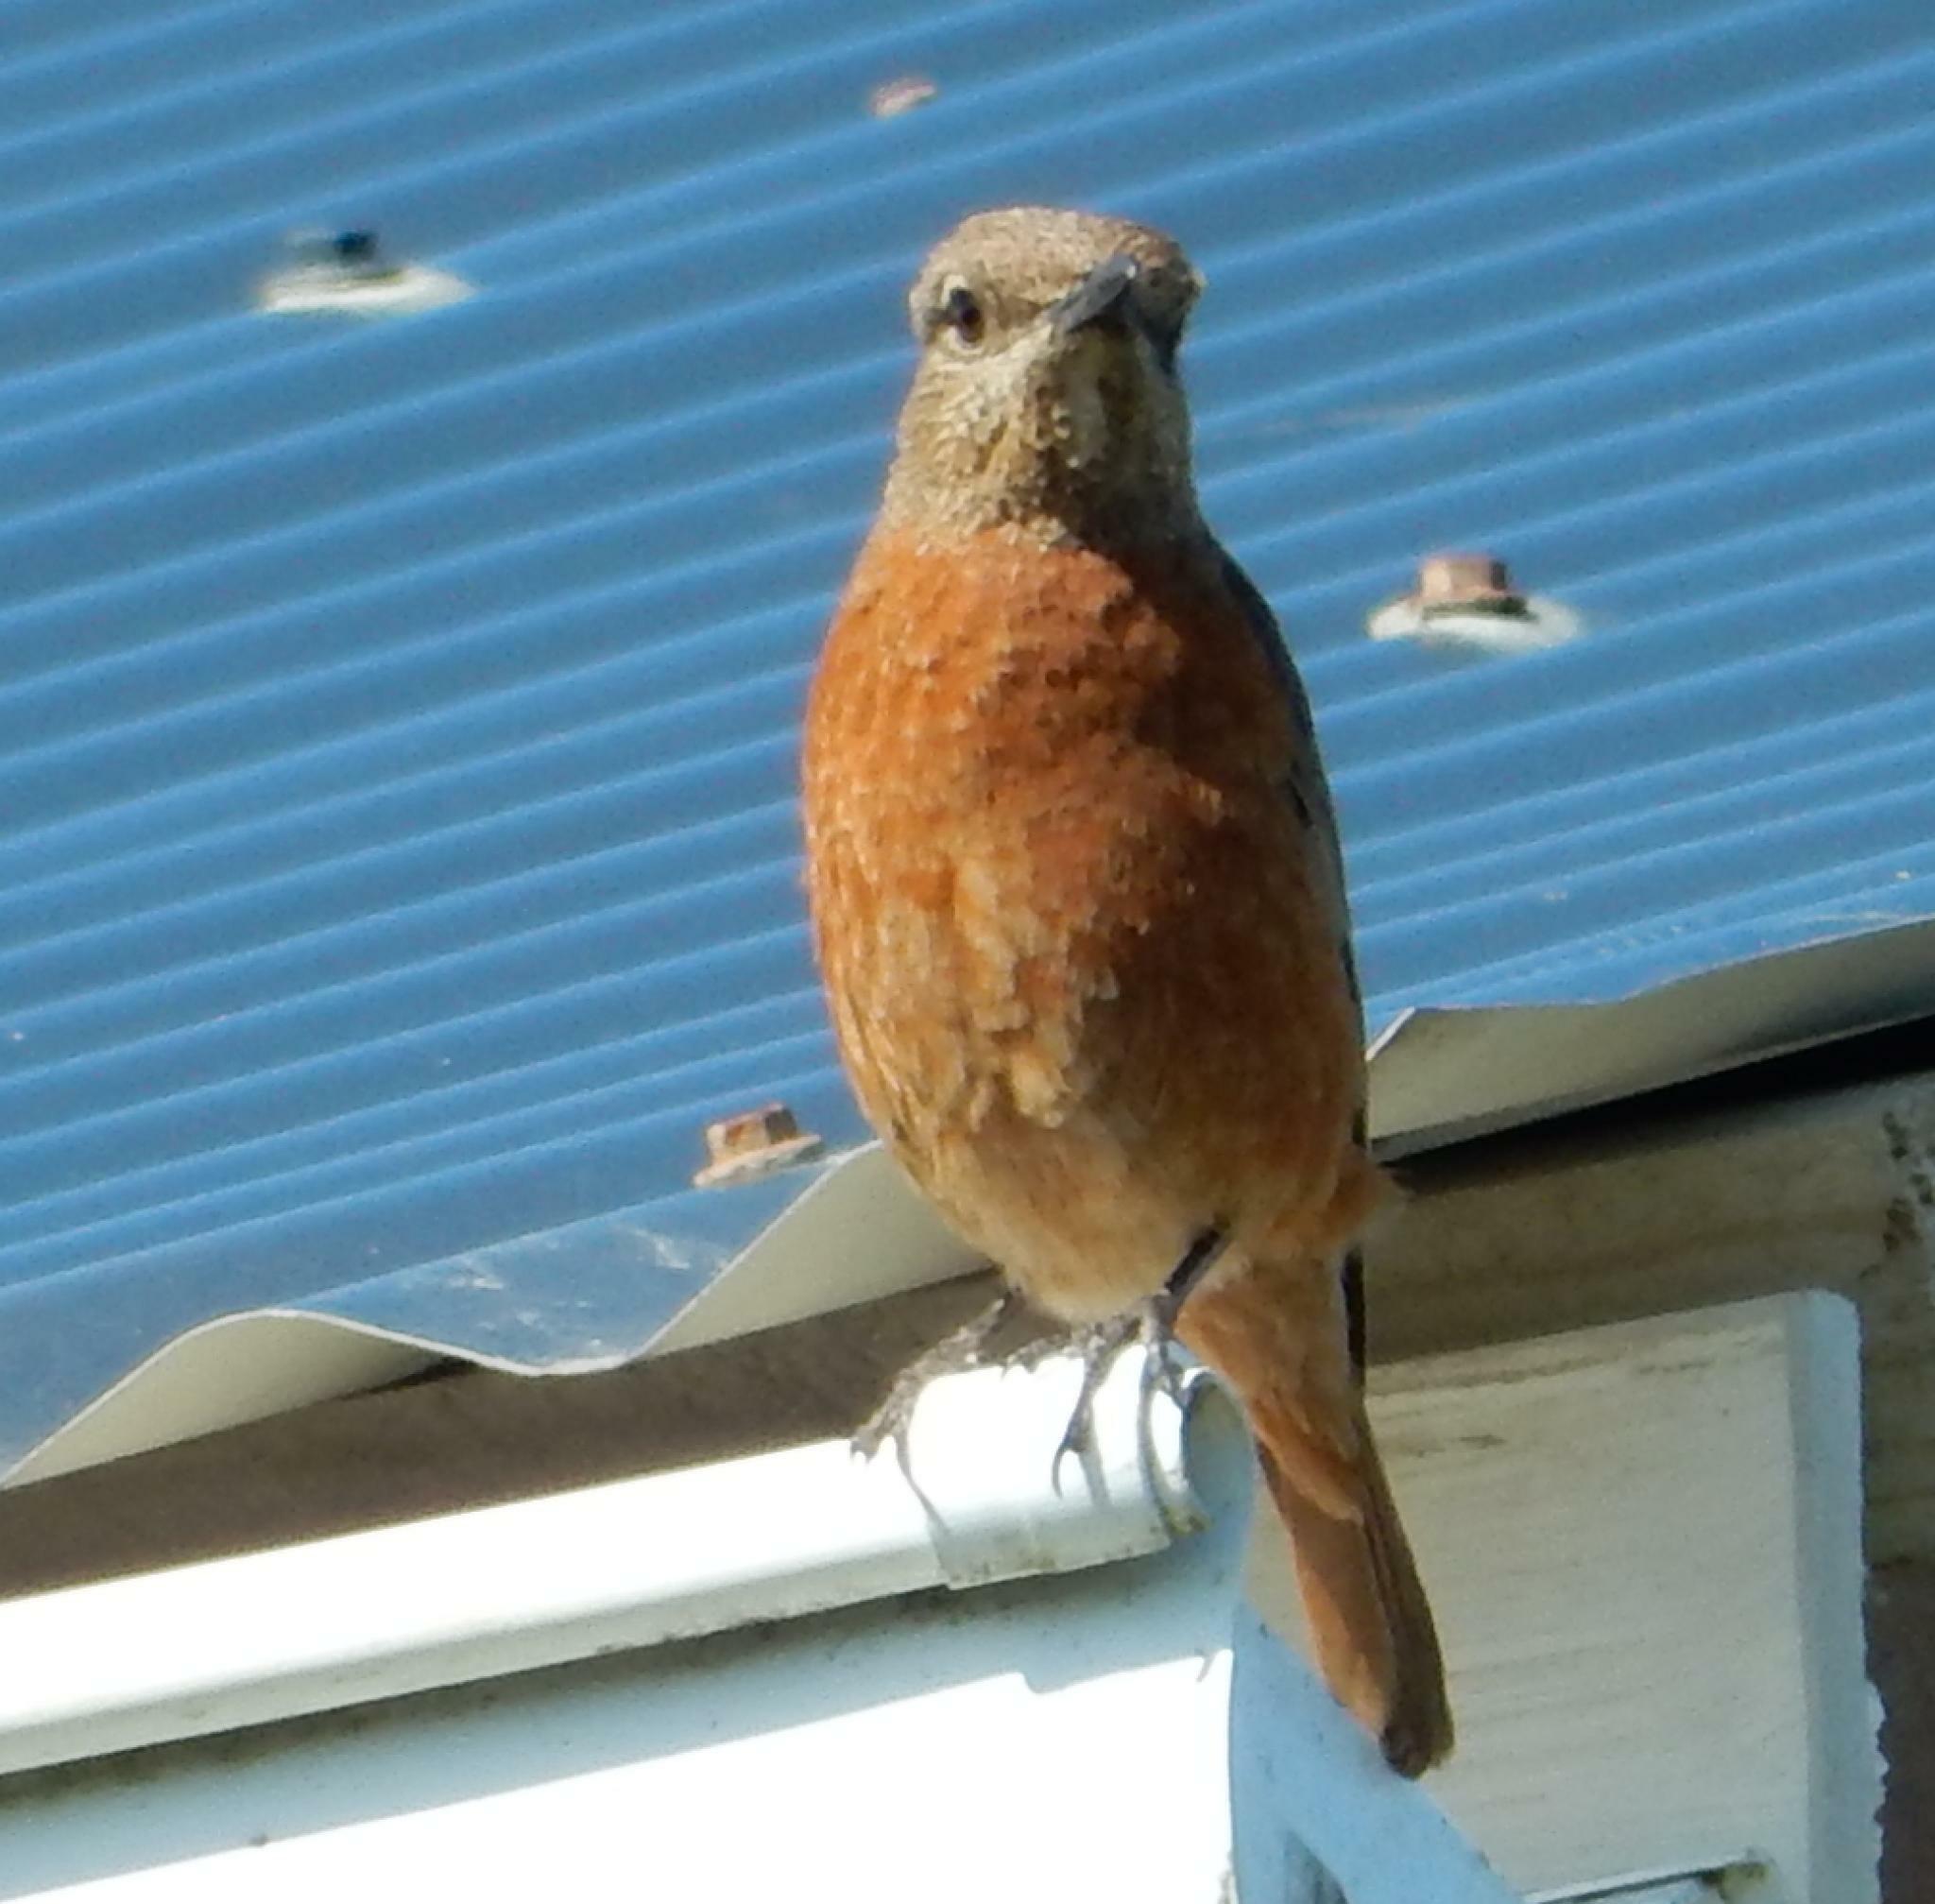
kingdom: Animalia
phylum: Chordata
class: Aves
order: Passeriformes
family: Muscicapidae
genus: Monticola
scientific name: Monticola rupestris
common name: Cape rock thrush
